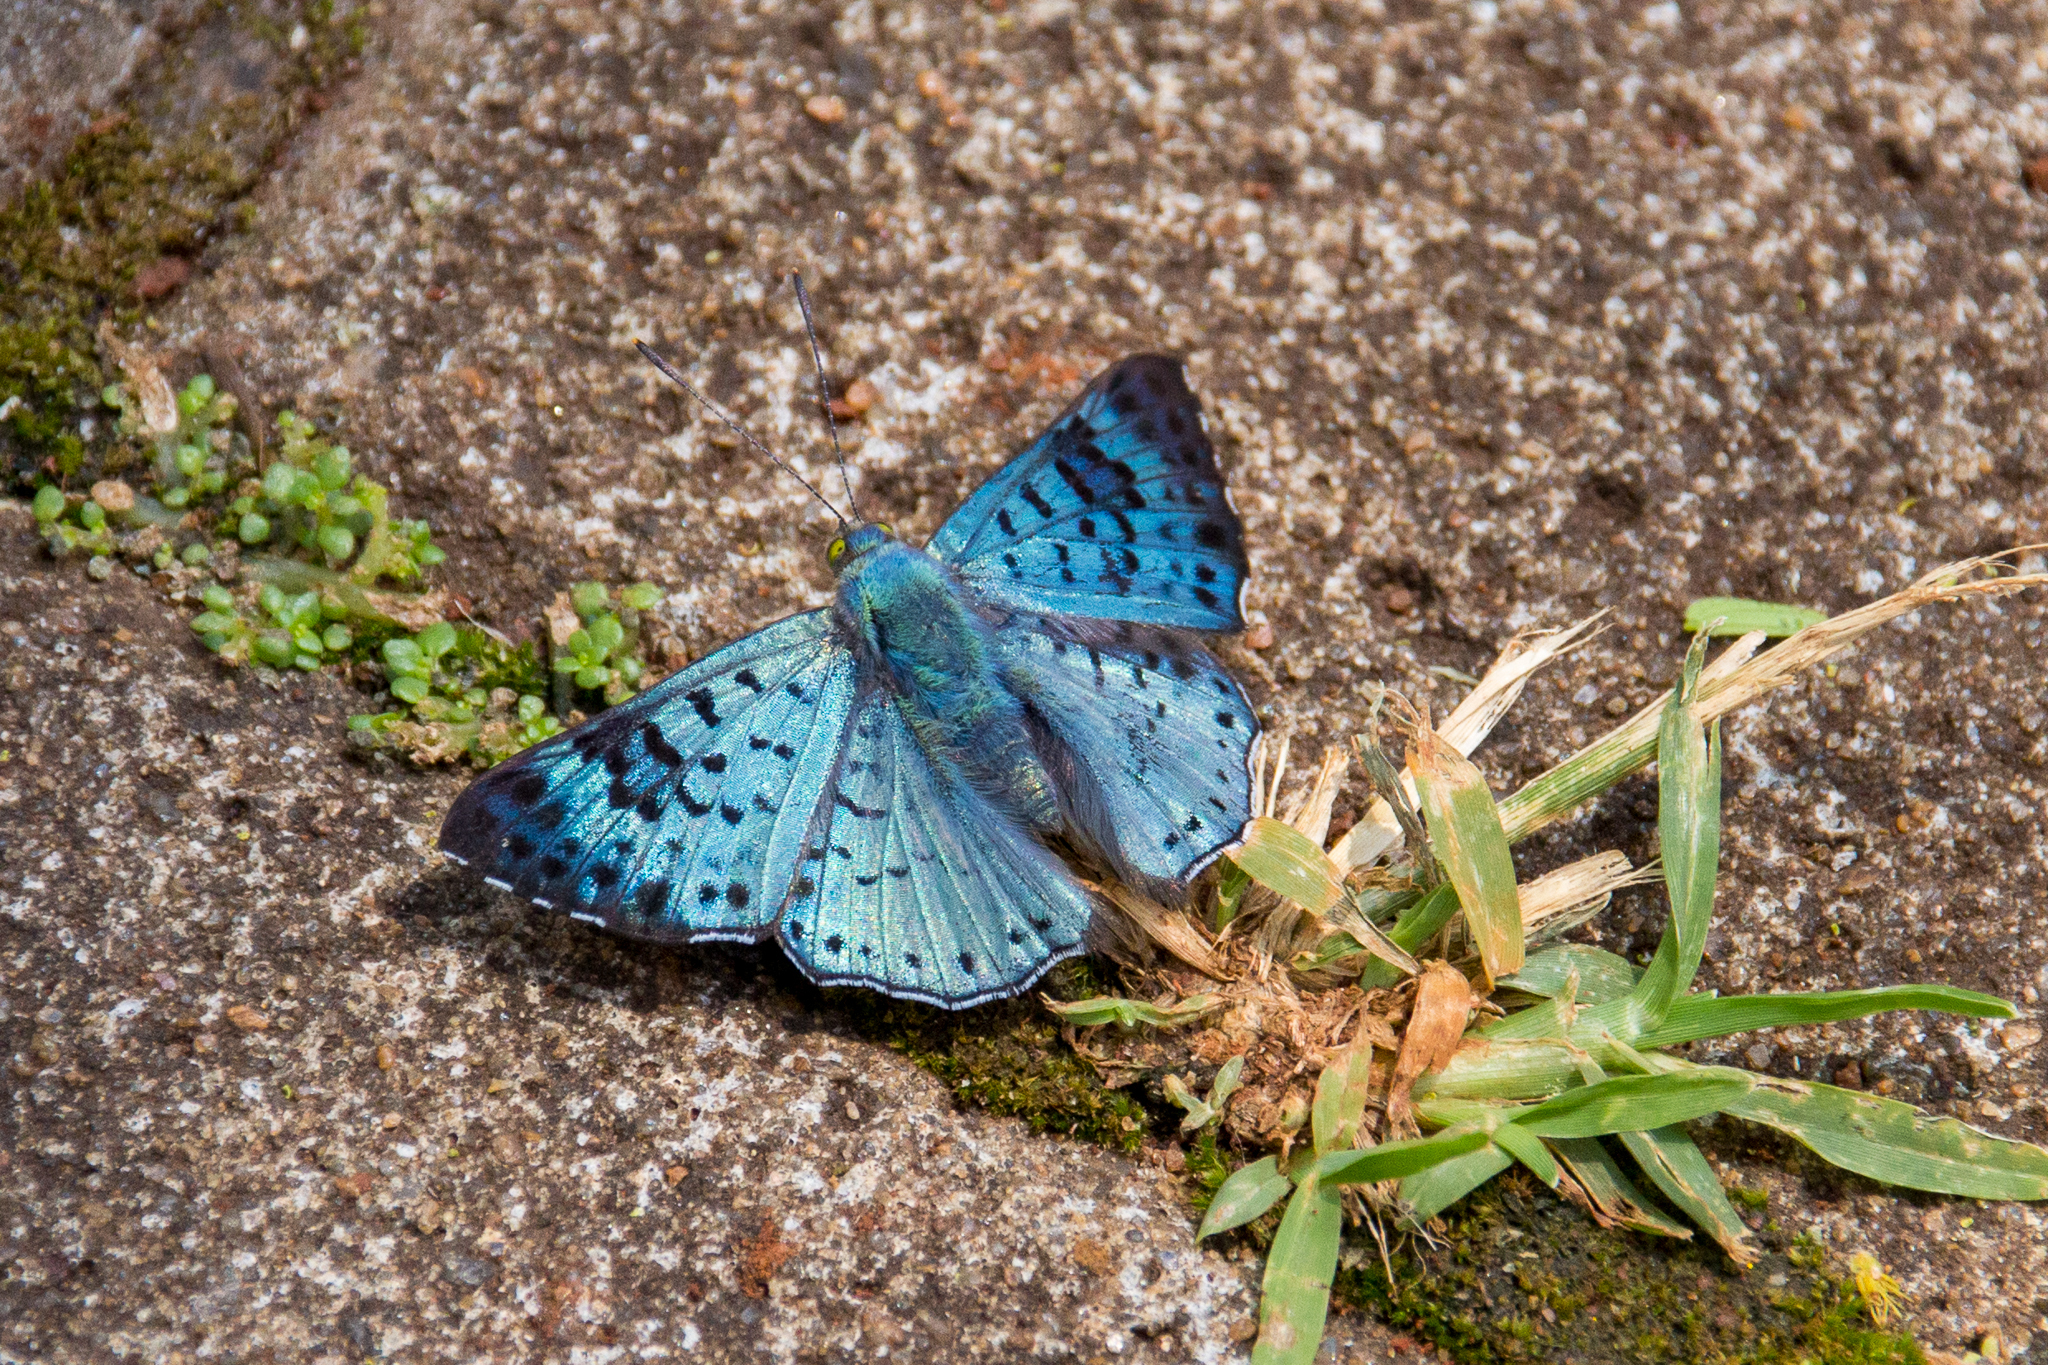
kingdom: Animalia
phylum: Arthropoda
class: Insecta
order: Lepidoptera
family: Riodinidae
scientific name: Riodinidae
